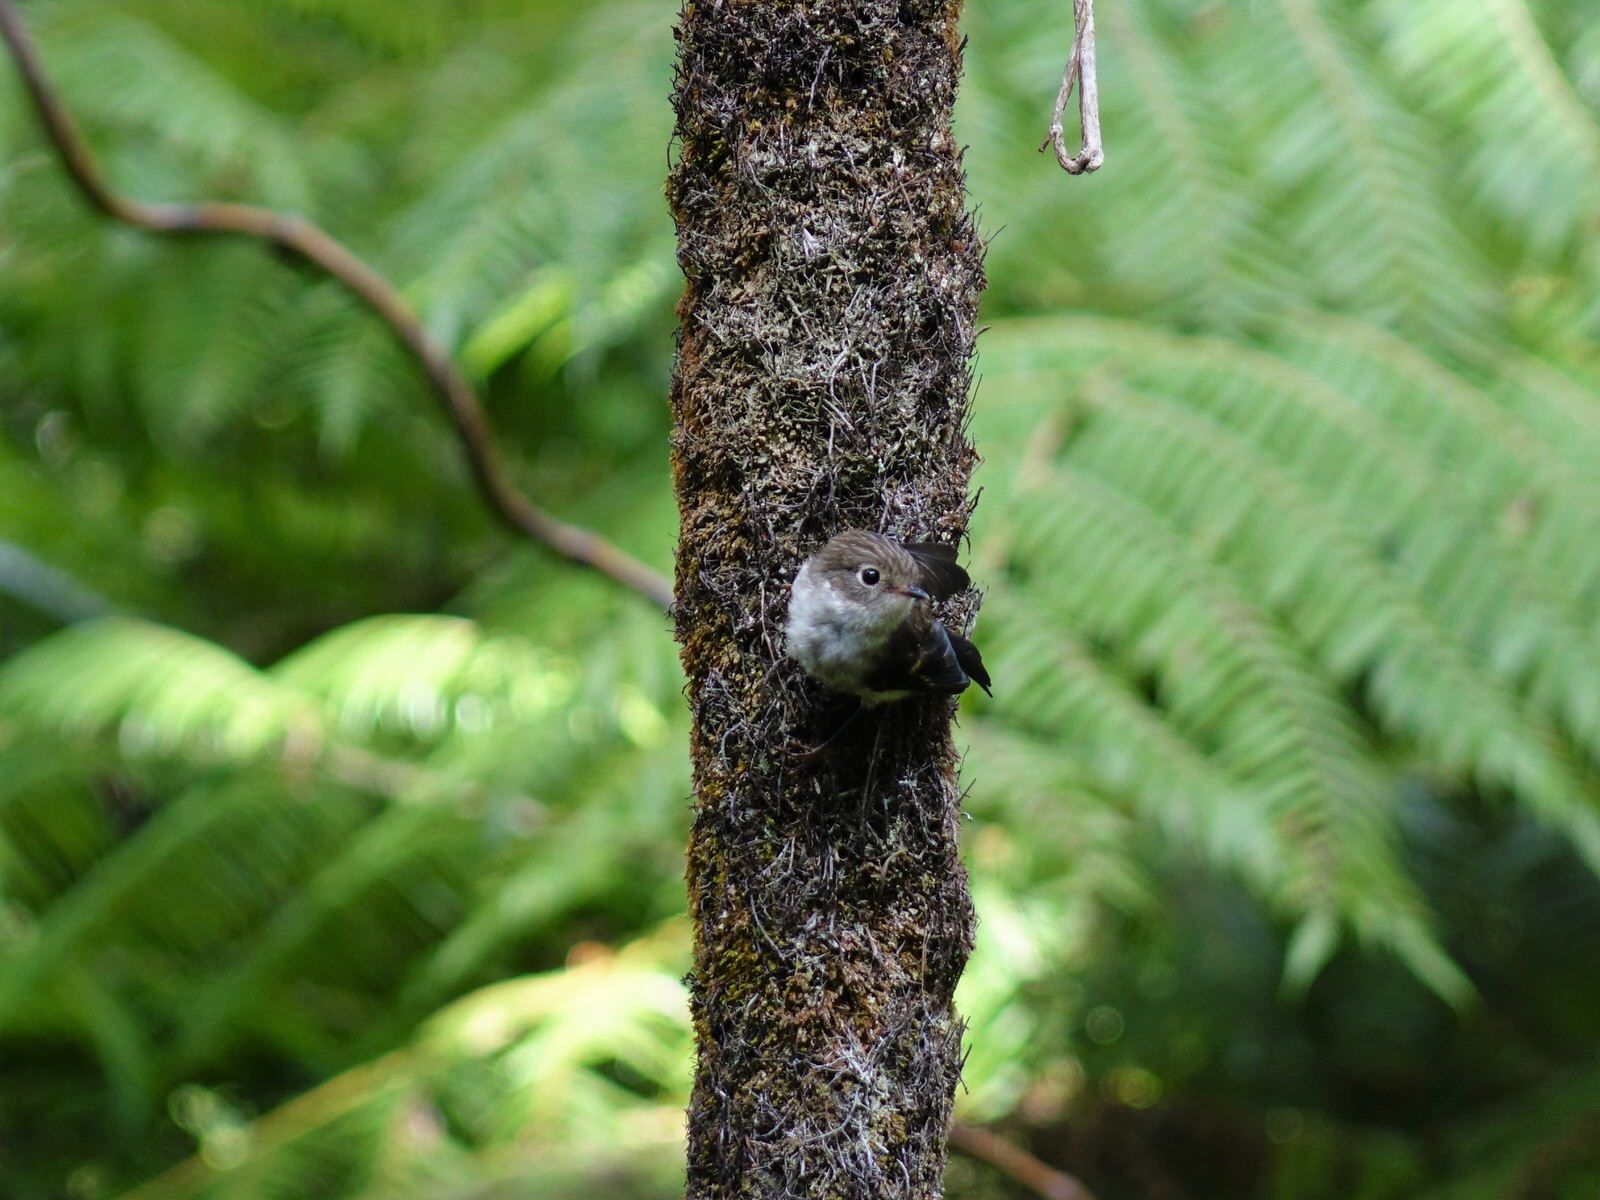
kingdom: Animalia
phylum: Chordata
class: Aves
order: Passeriformes
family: Petroicidae
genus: Petroica
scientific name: Petroica macrocephala
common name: Tomtit
